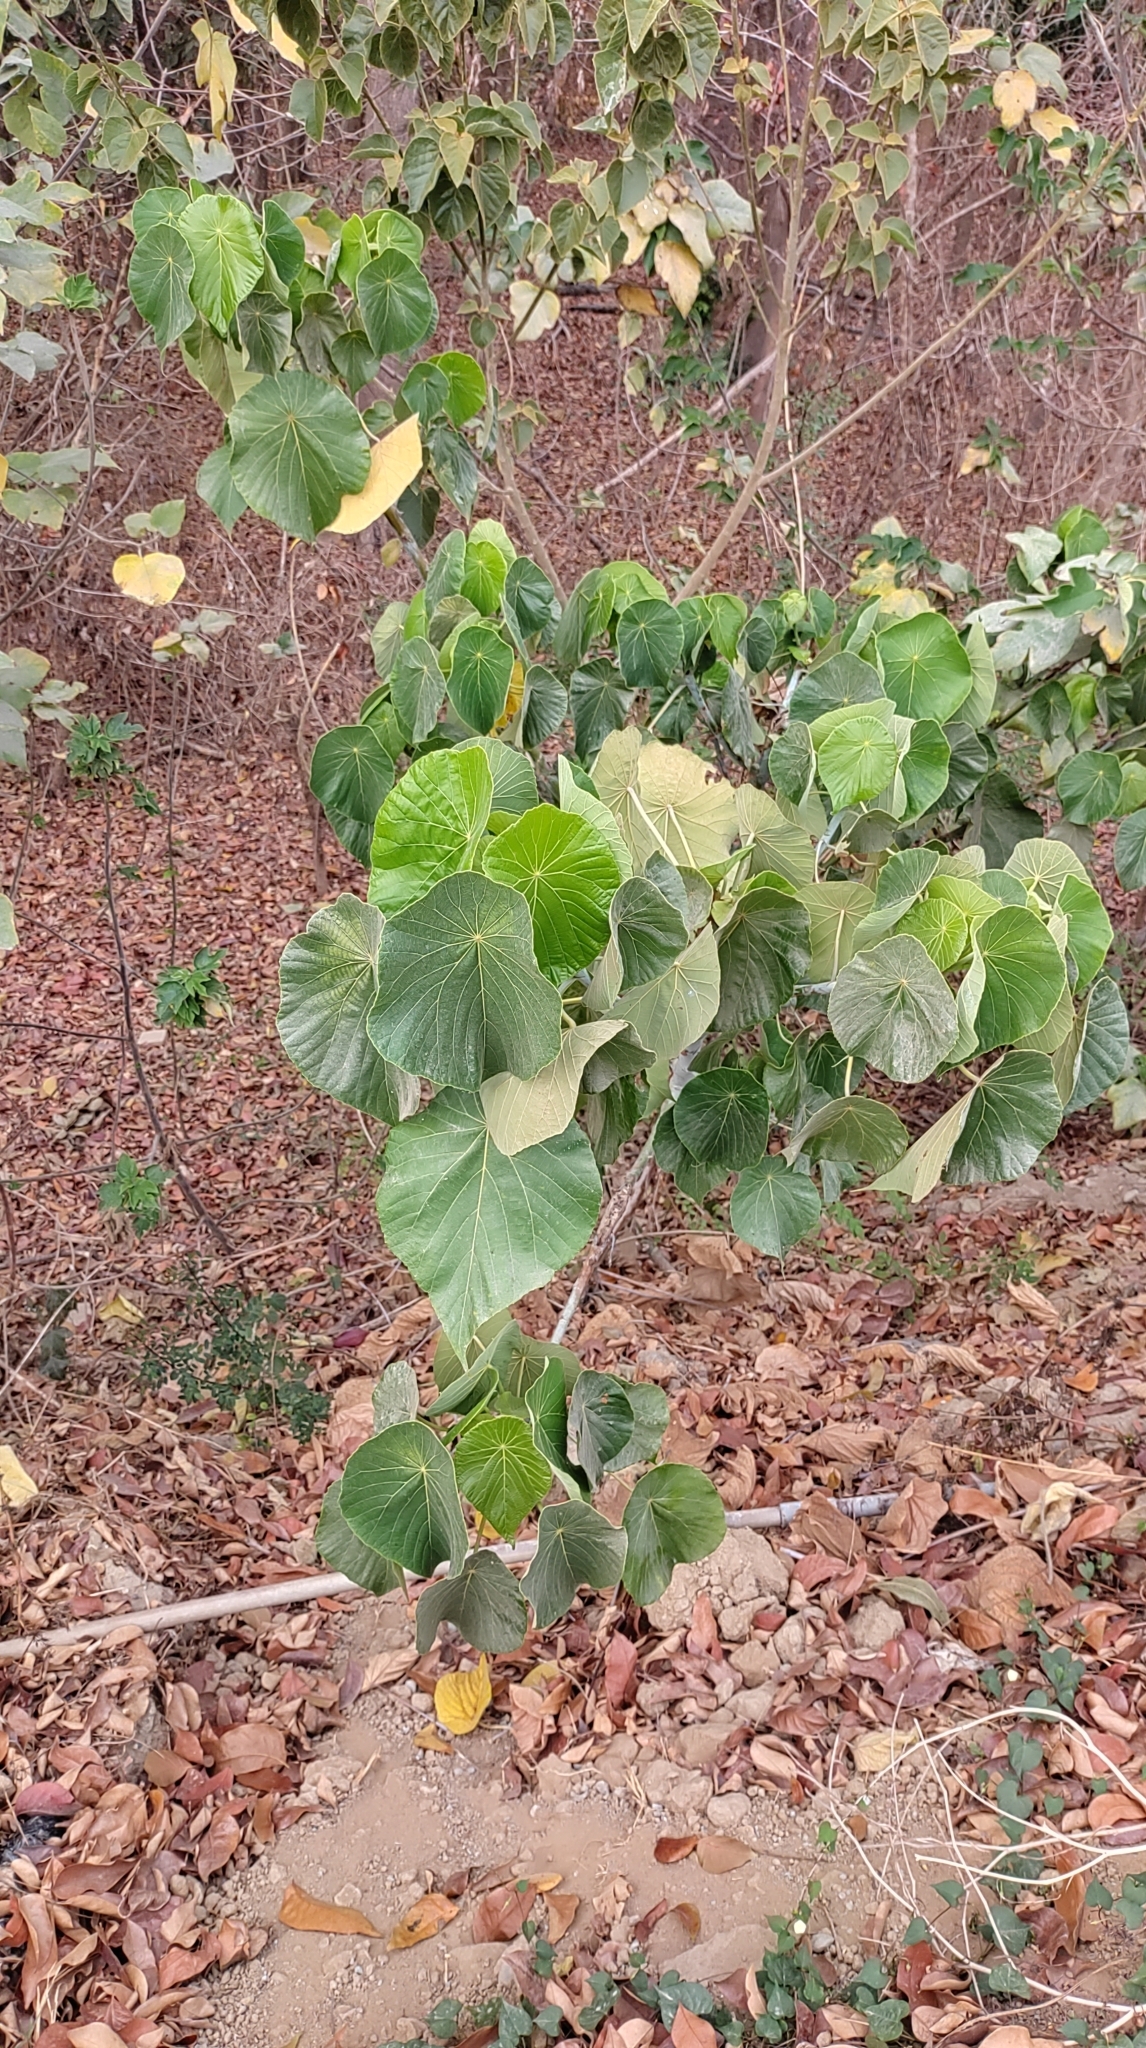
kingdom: Plantae
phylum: Tracheophyta
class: Magnoliopsida
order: Malpighiales
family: Euphorbiaceae
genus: Macaranga
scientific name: Macaranga tanarius
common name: Parasol leaf tree
